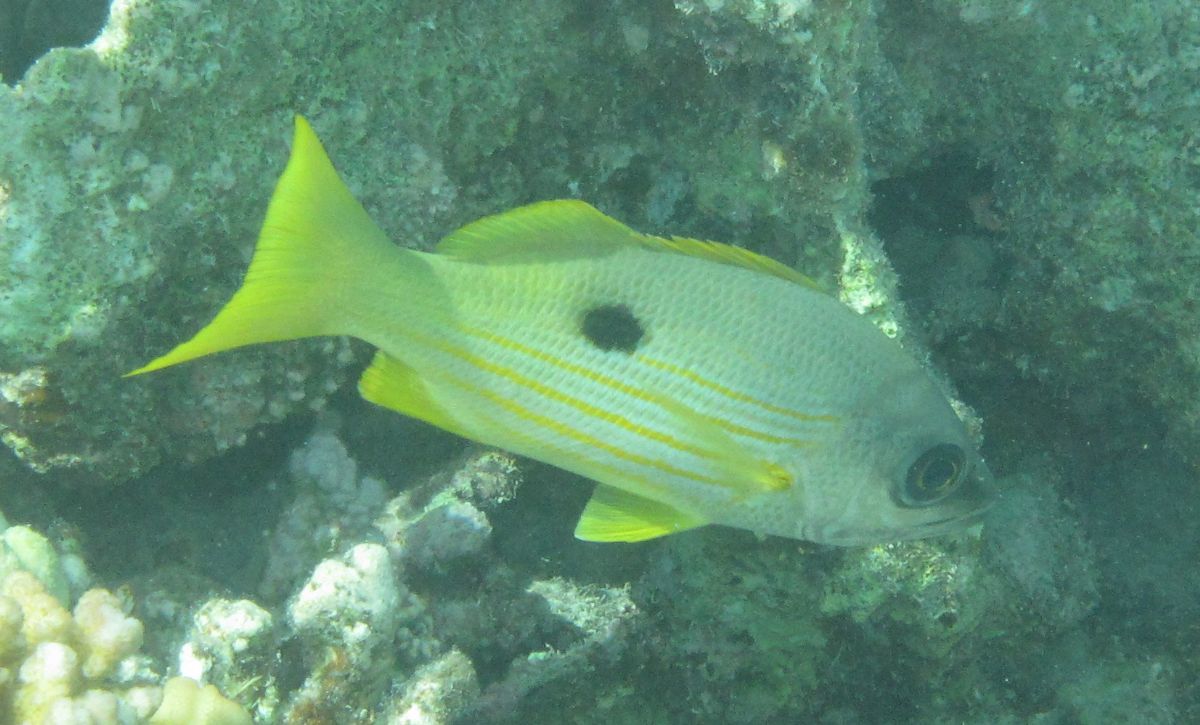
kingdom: Animalia
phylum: Chordata
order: Perciformes
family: Lutjanidae
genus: Lutjanus
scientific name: Lutjanus ehrenbergii
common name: Blackspot snapper
